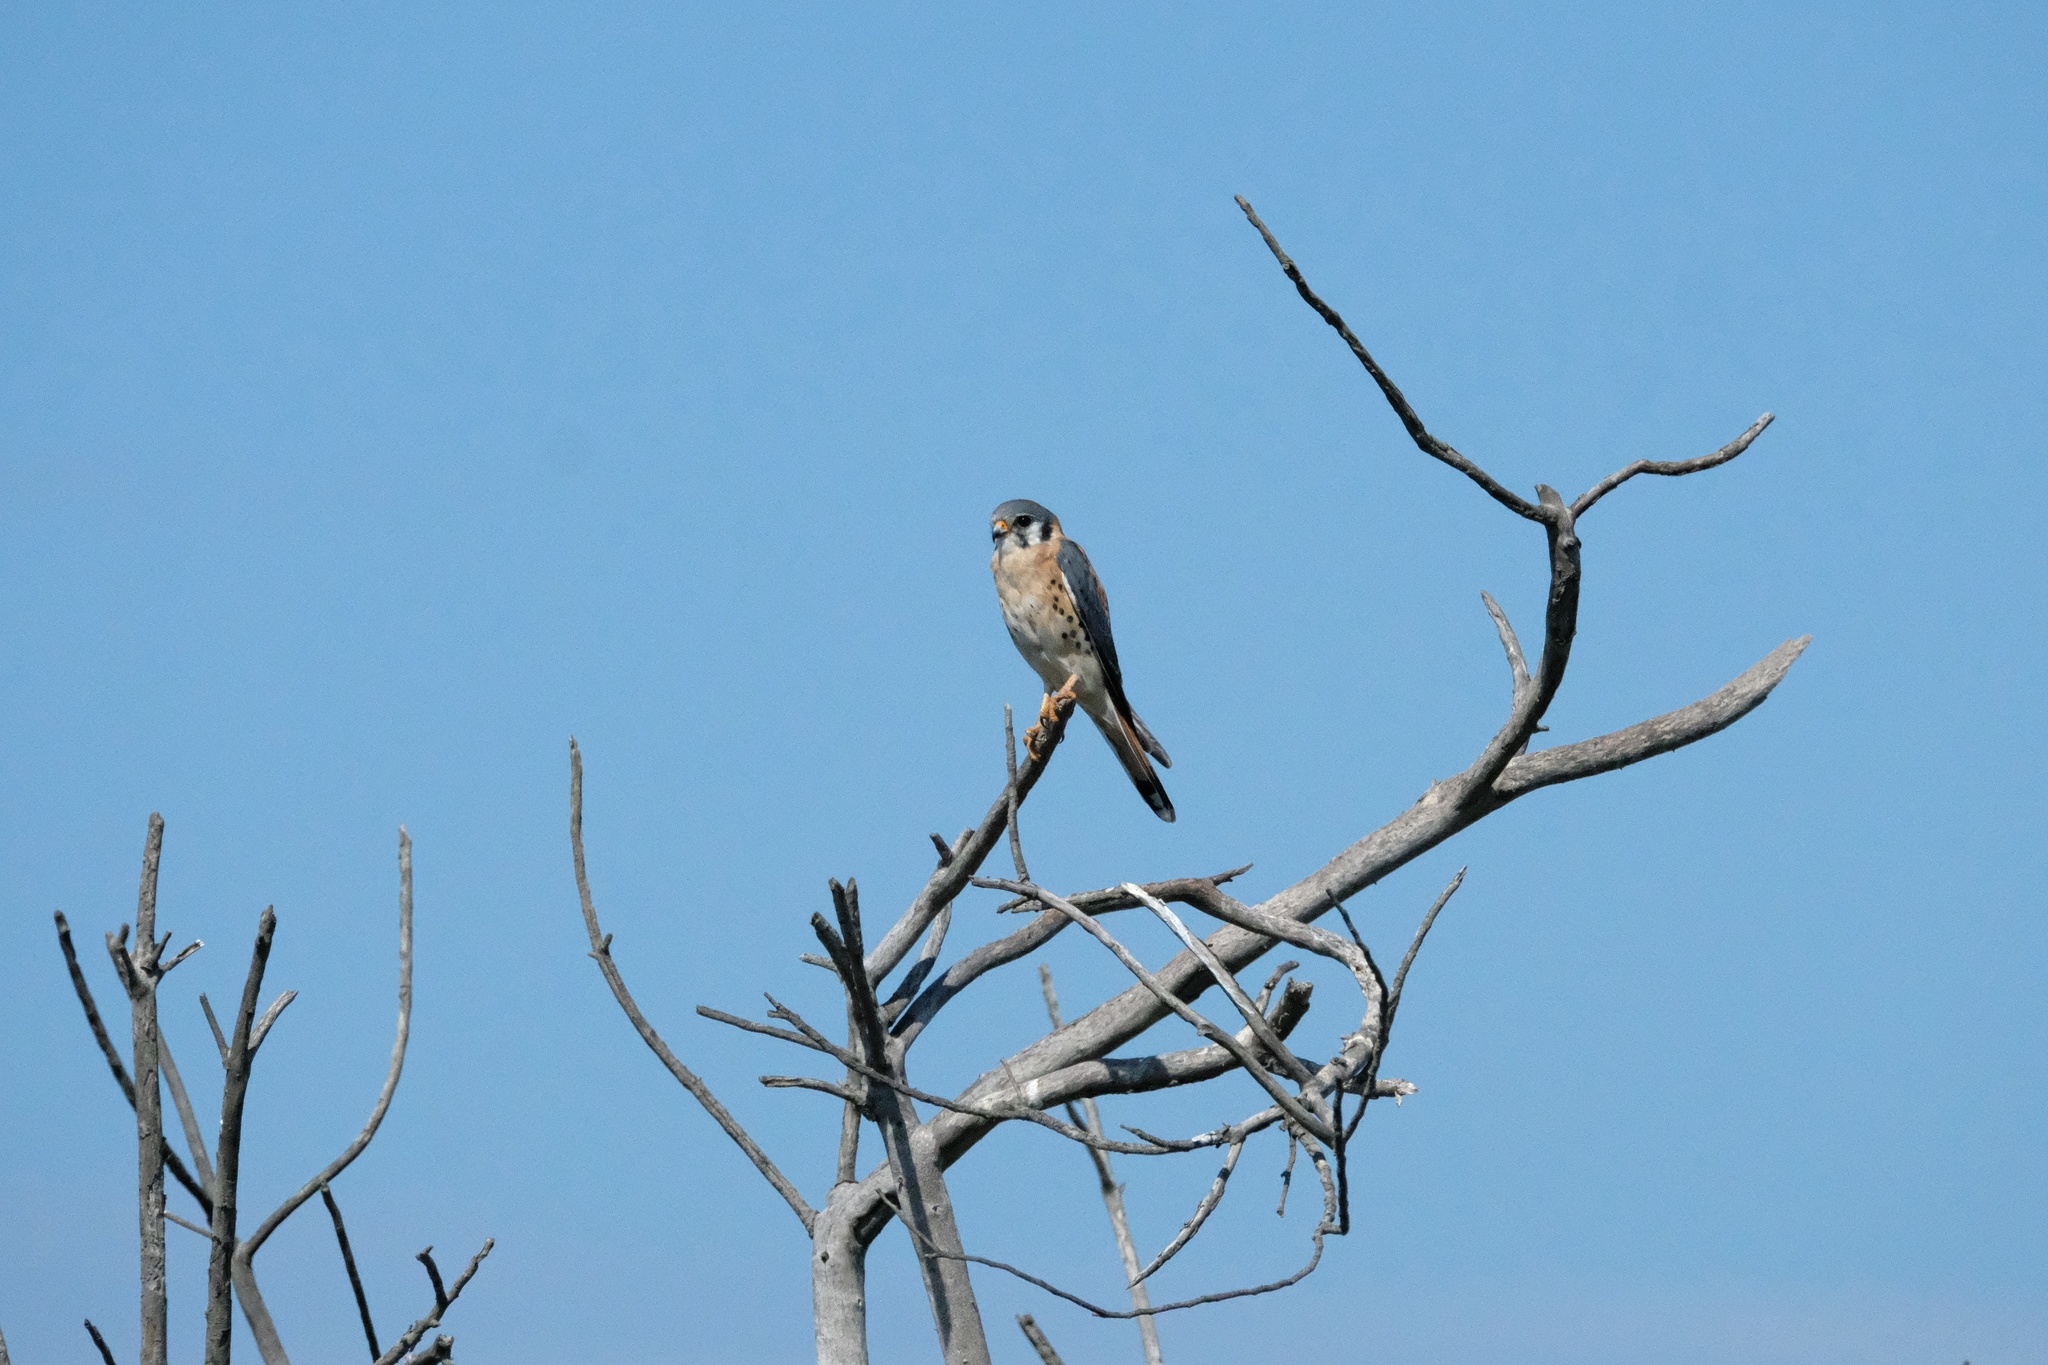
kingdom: Animalia
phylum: Chordata
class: Aves
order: Falconiformes
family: Falconidae
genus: Falco
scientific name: Falco sparverius
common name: American kestrel
